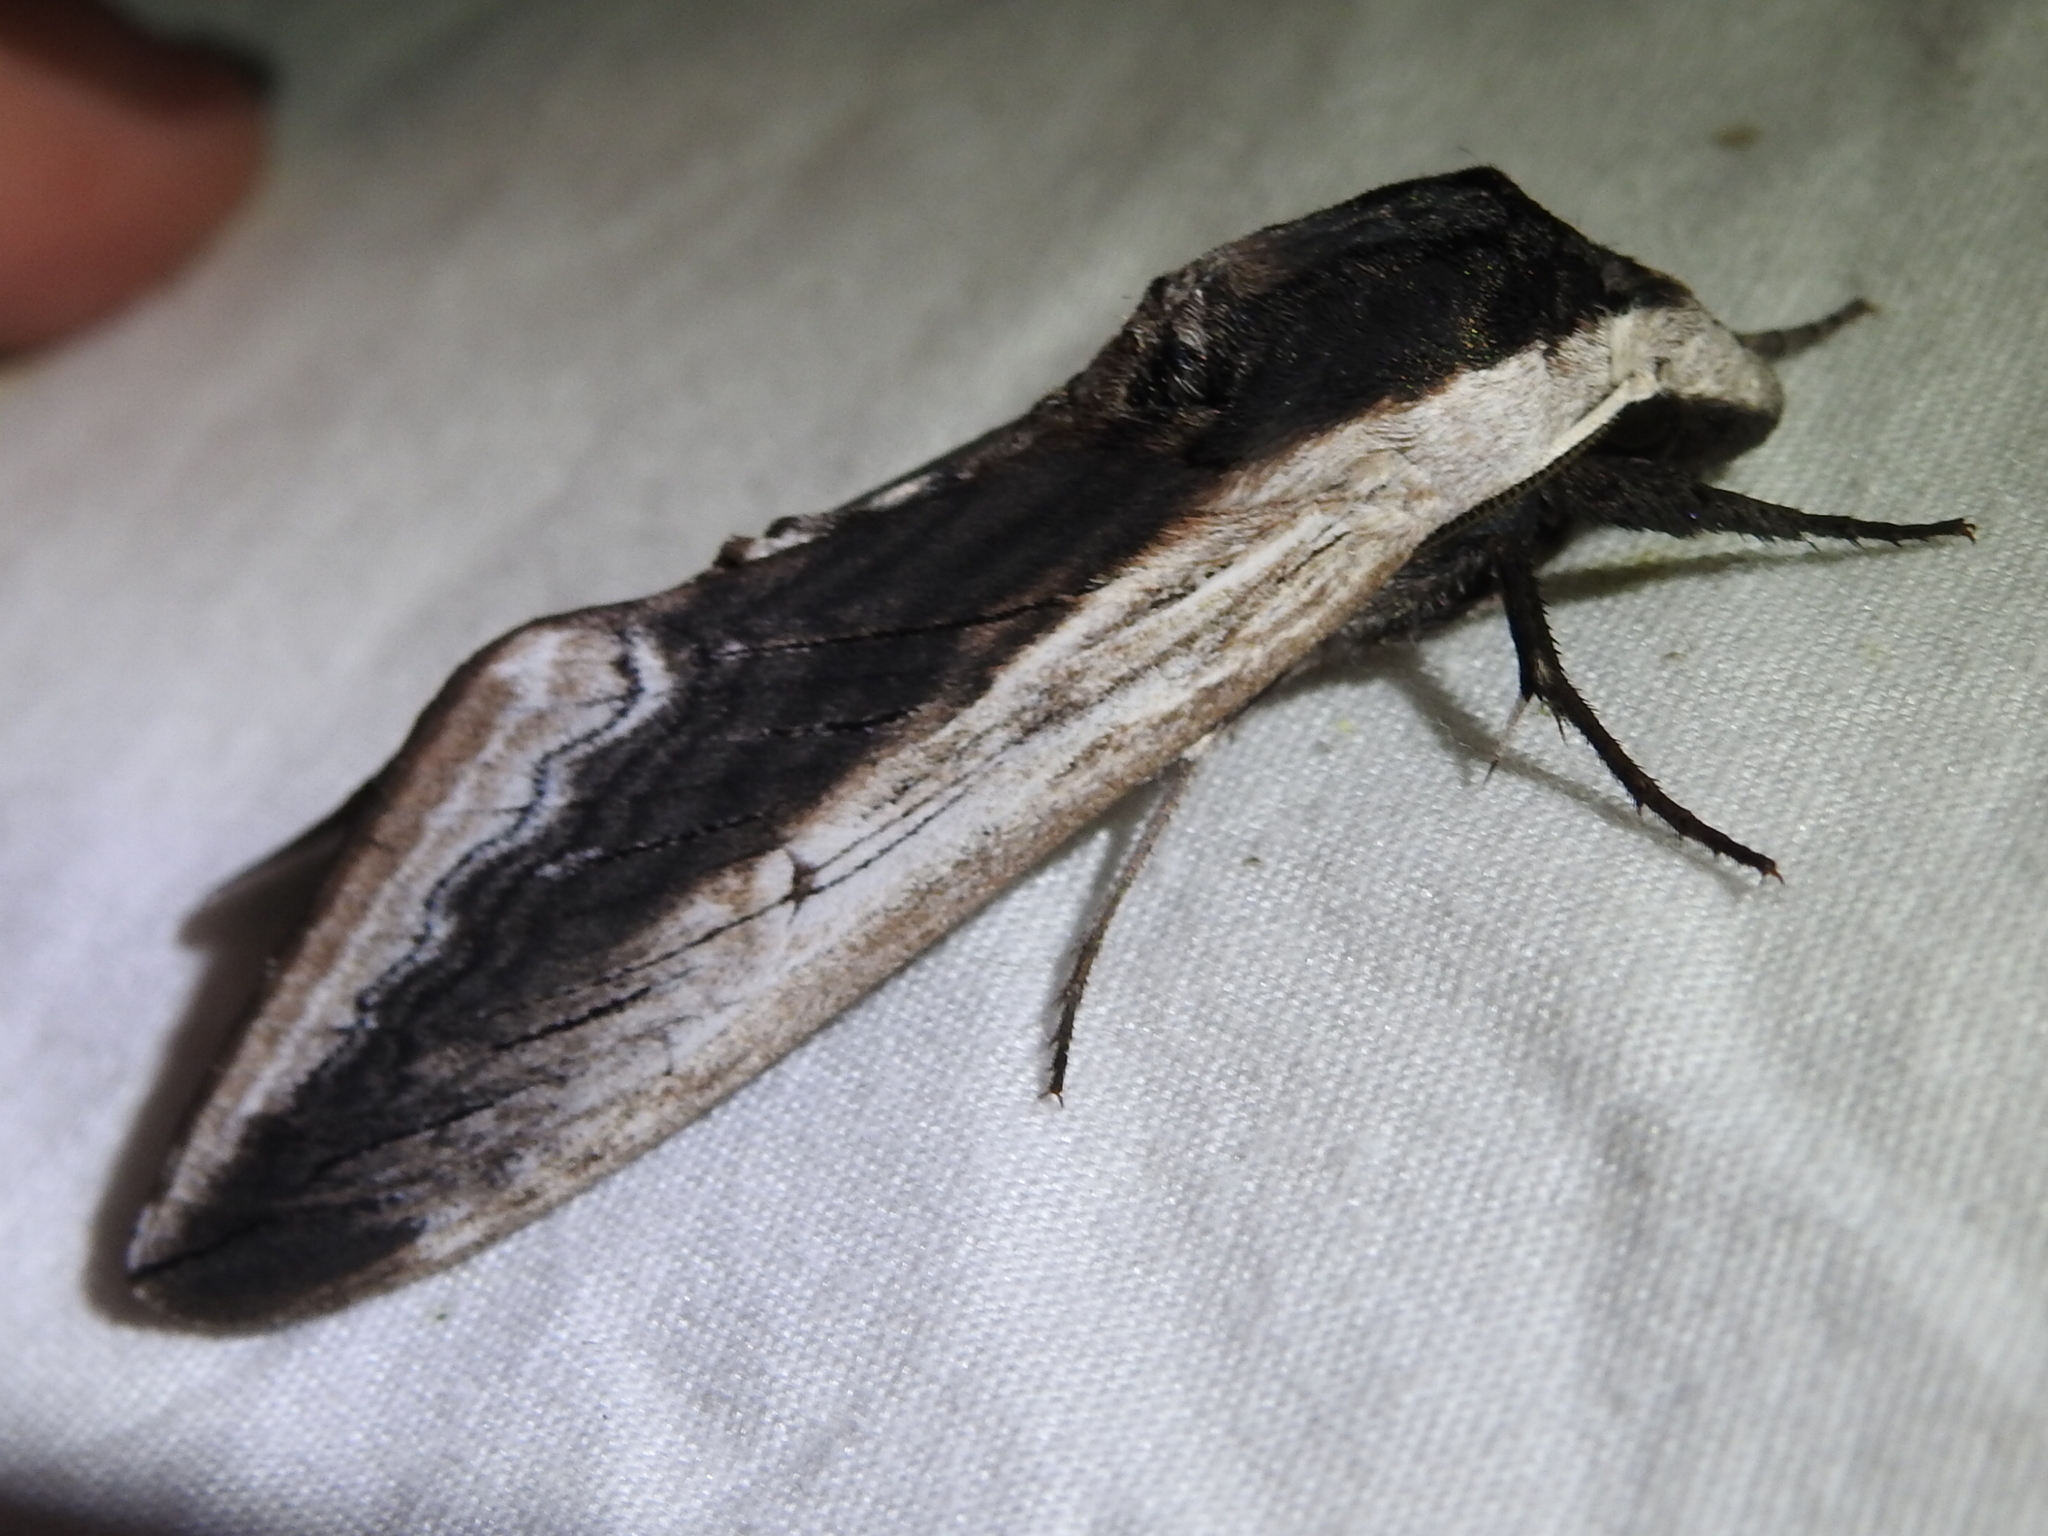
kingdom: Animalia
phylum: Arthropoda
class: Insecta
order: Lepidoptera
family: Sphingidae
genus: Sphinx
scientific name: Sphinx drupiferarum
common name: Wild cherry sphinx
